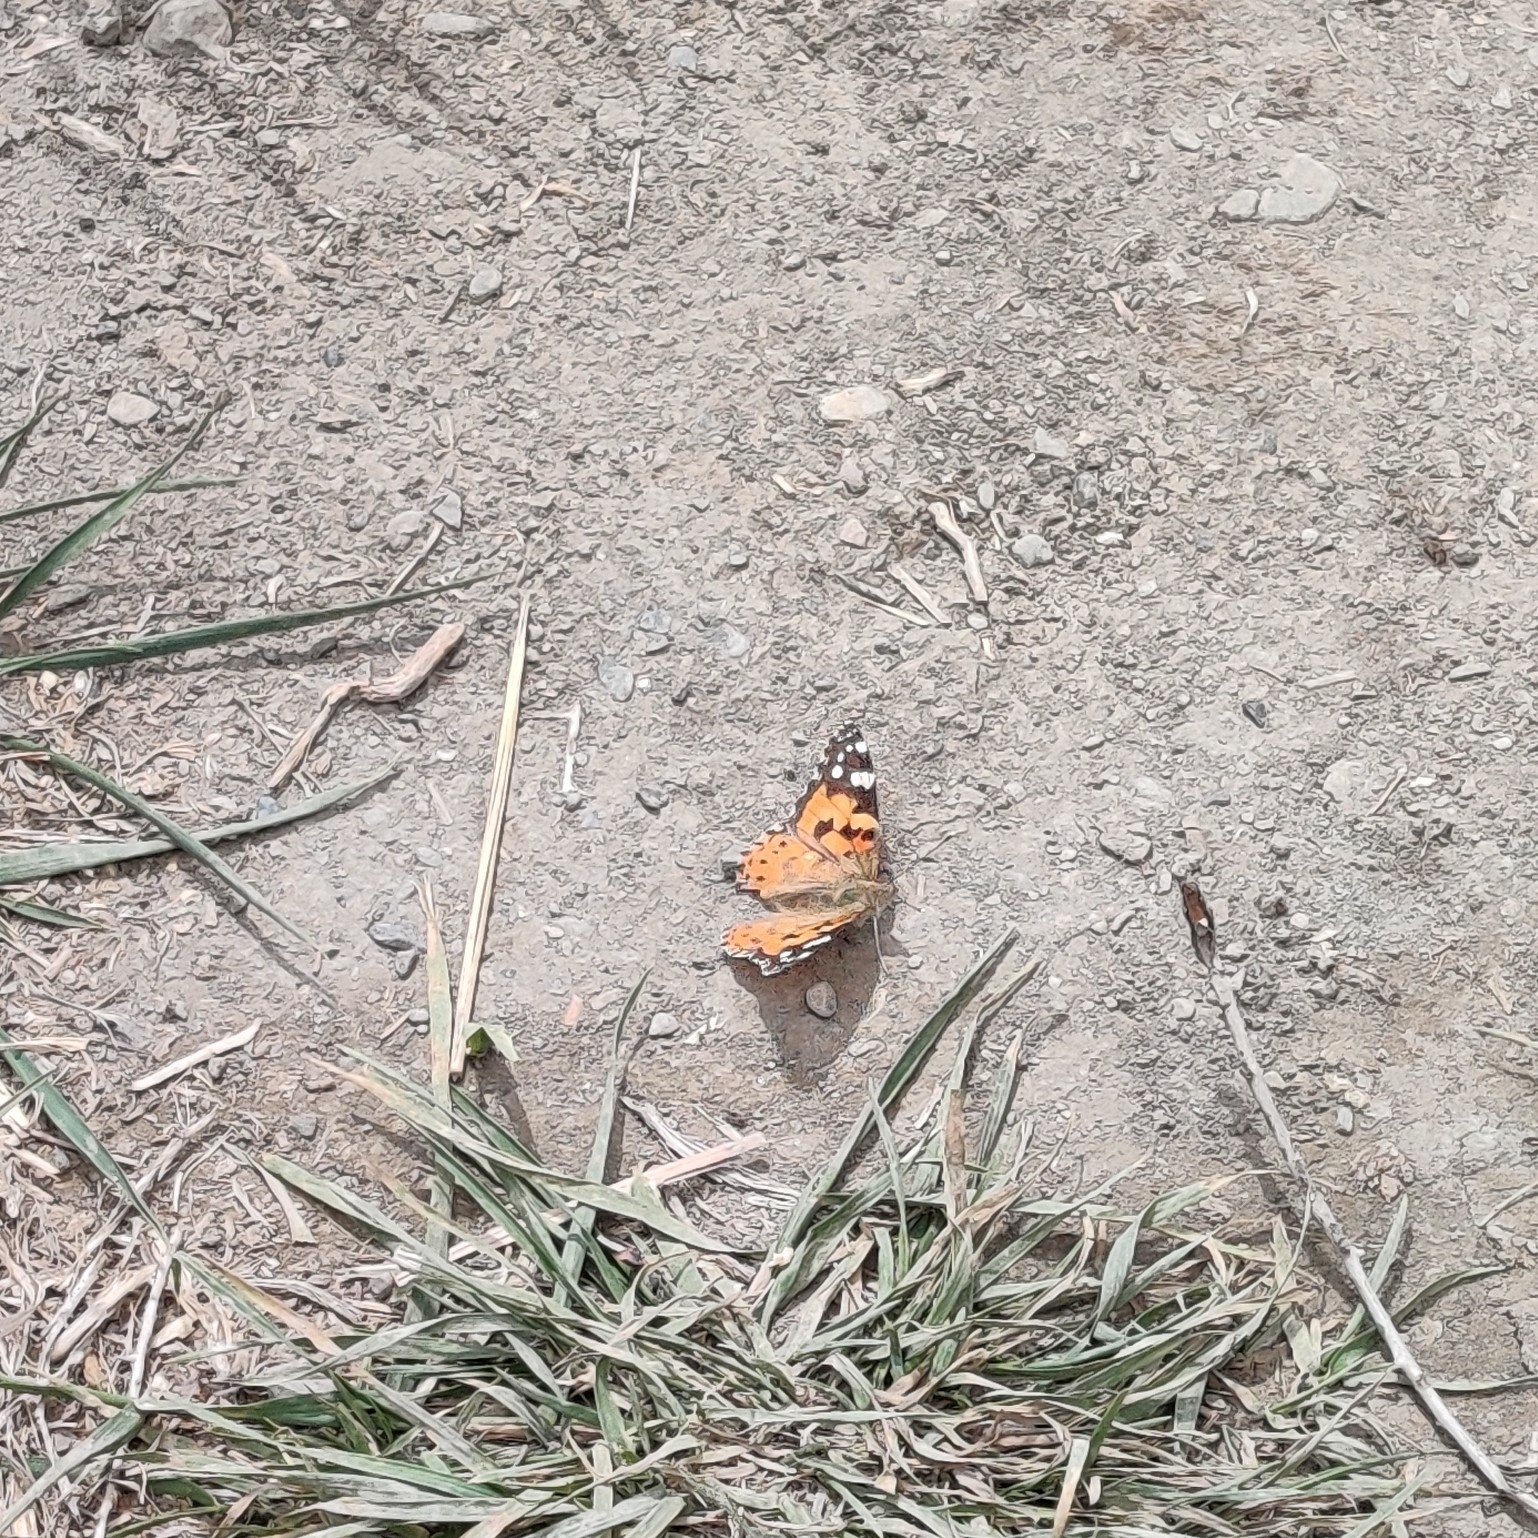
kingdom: Animalia
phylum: Arthropoda
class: Insecta
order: Lepidoptera
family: Nymphalidae
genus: Vanessa
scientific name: Vanessa cardui
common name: Painted lady
